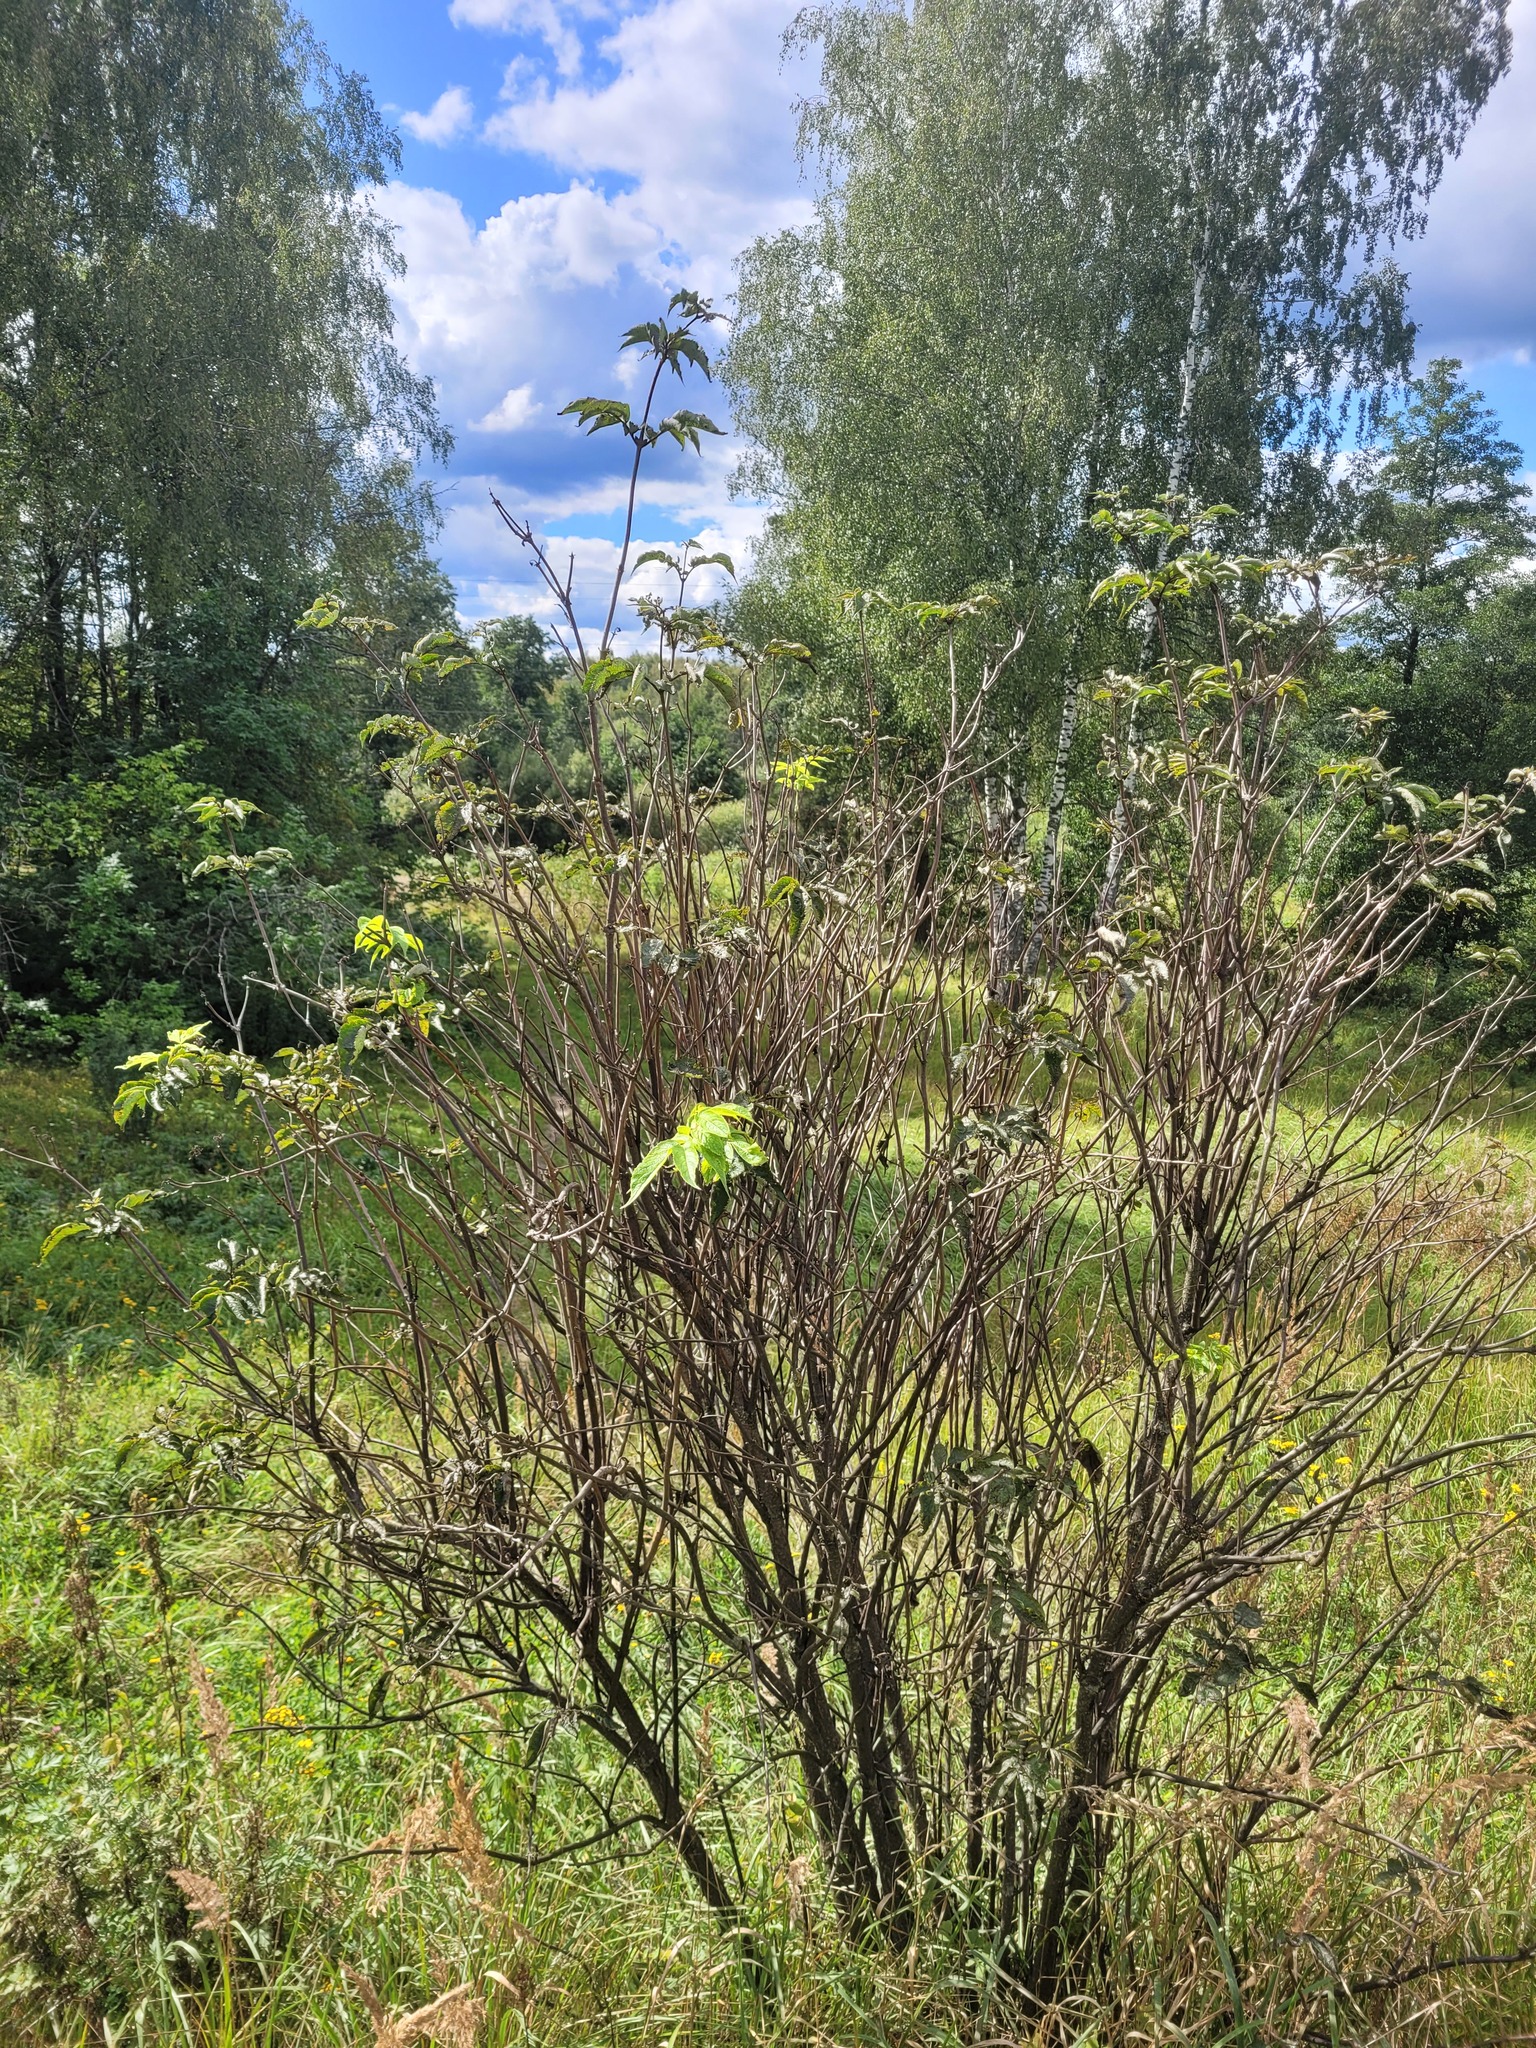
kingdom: Plantae
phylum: Tracheophyta
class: Magnoliopsida
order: Dipsacales
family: Viburnaceae
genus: Sambucus
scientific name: Sambucus racemosa
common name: Red-berried elder
